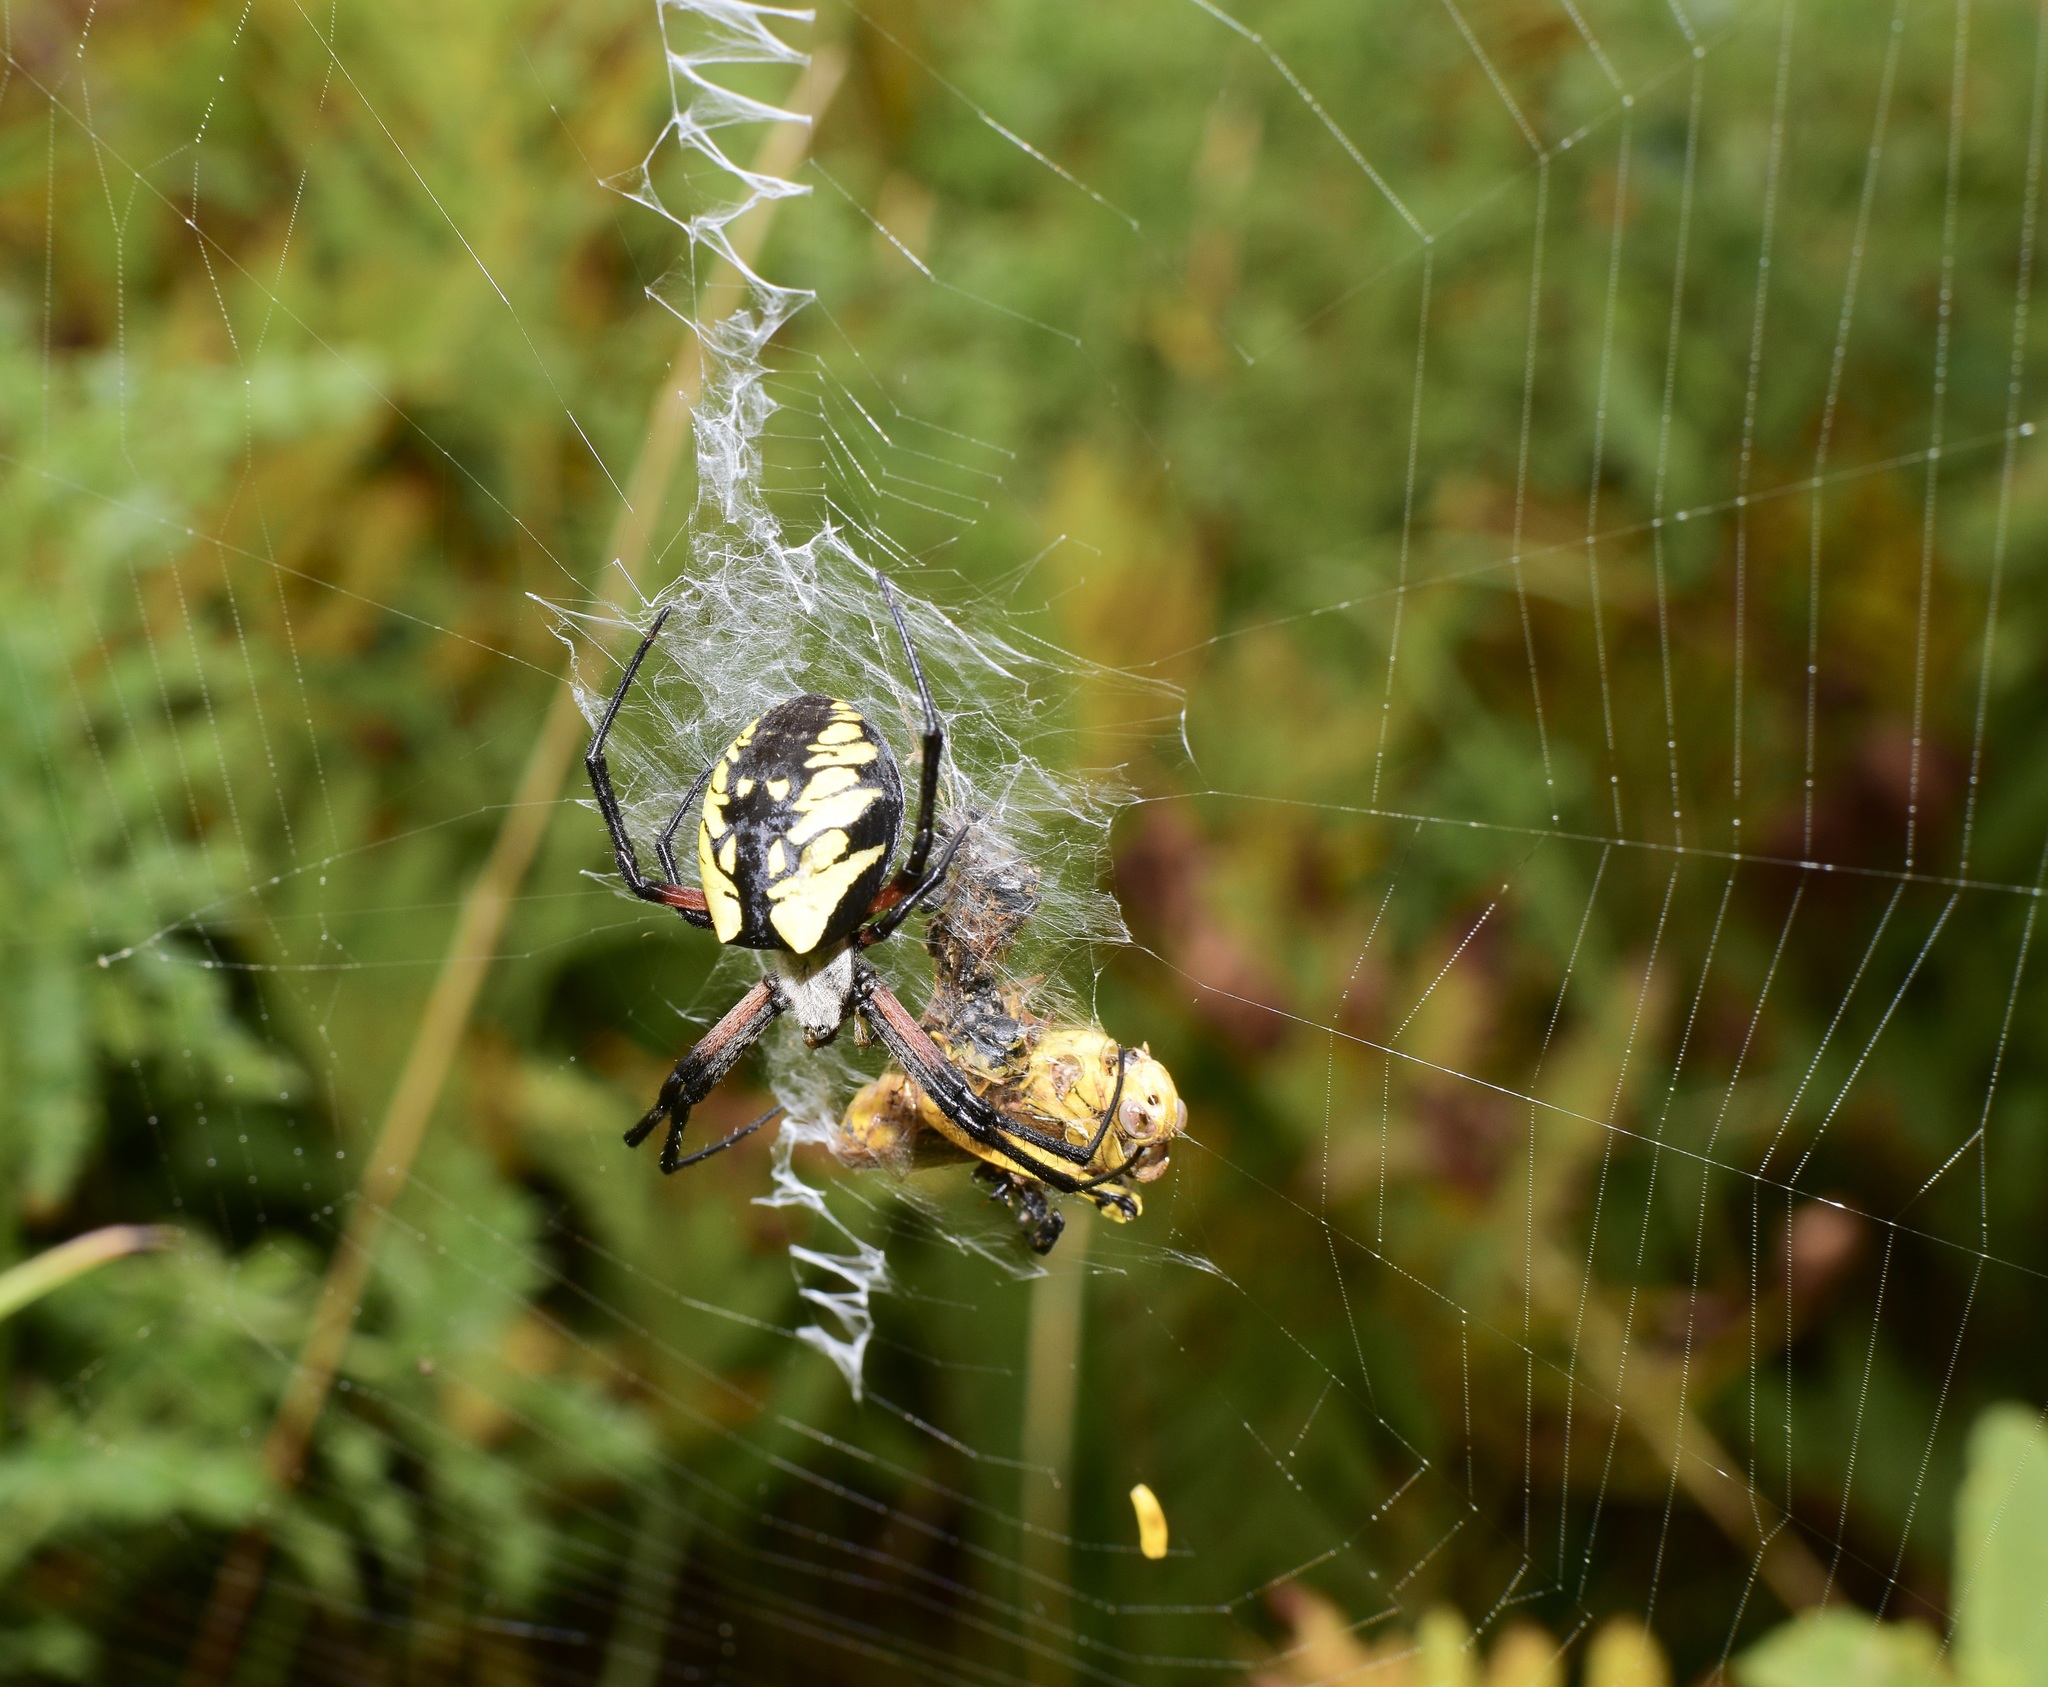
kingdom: Animalia
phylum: Arthropoda
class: Arachnida
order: Araneae
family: Araneidae
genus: Argiope
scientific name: Argiope aurantia
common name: Orb weavers
